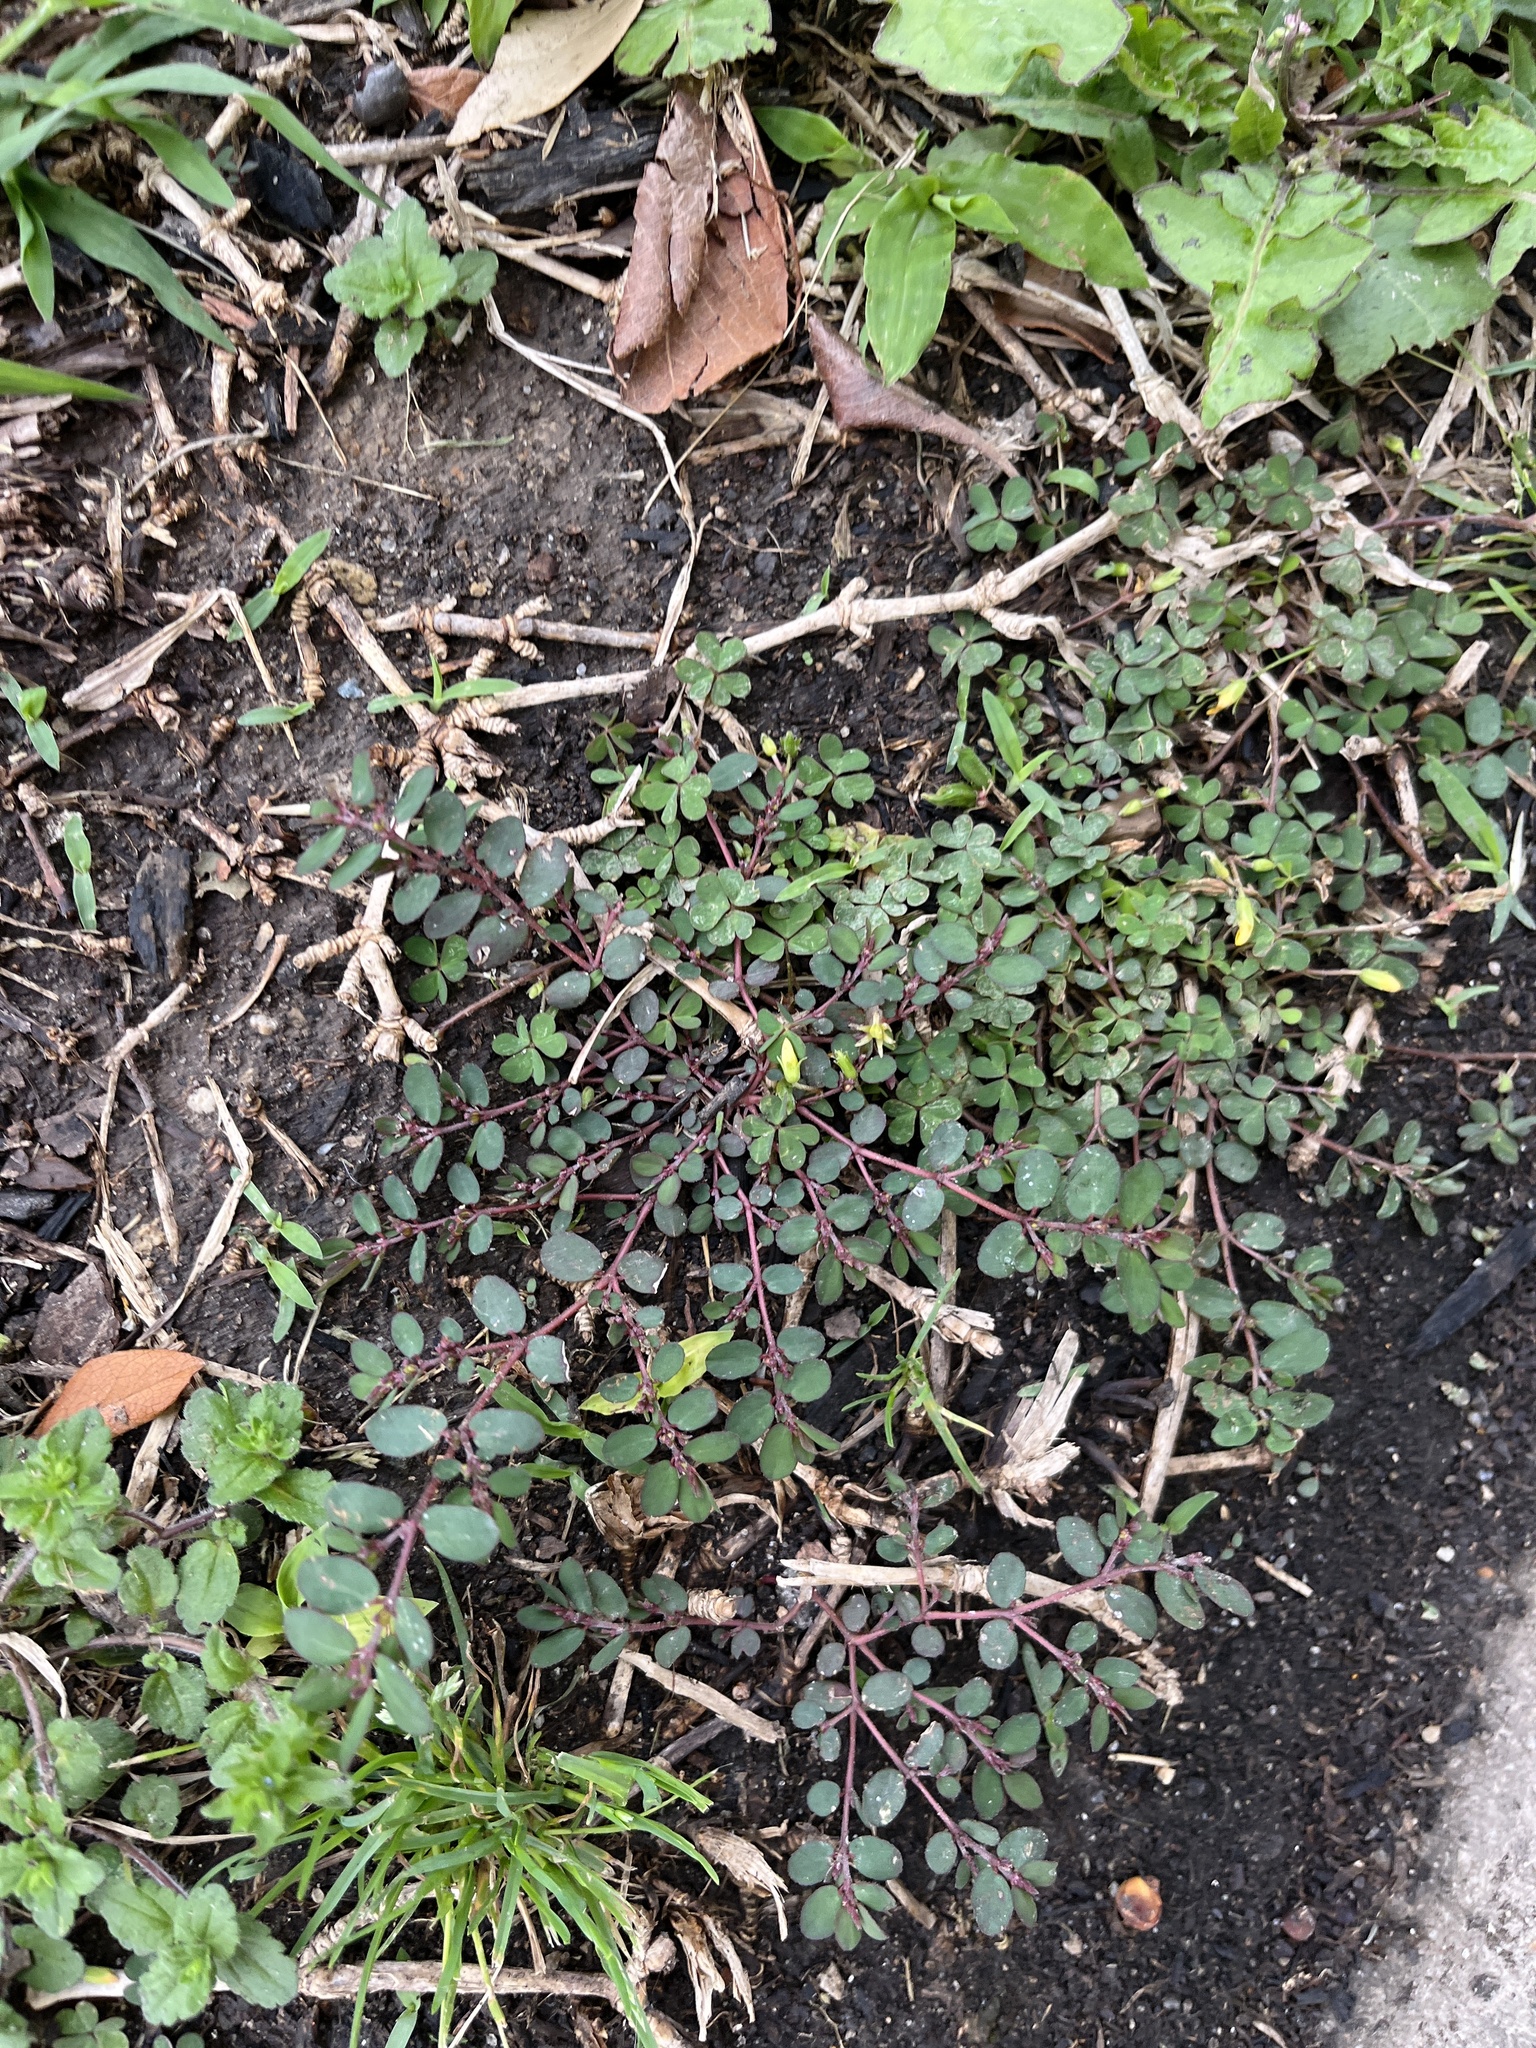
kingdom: Plantae
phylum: Tracheophyta
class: Magnoliopsida
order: Malpighiales
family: Euphorbiaceae
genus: Euphorbia
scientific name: Euphorbia prostrata
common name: Prostrate sandmat
